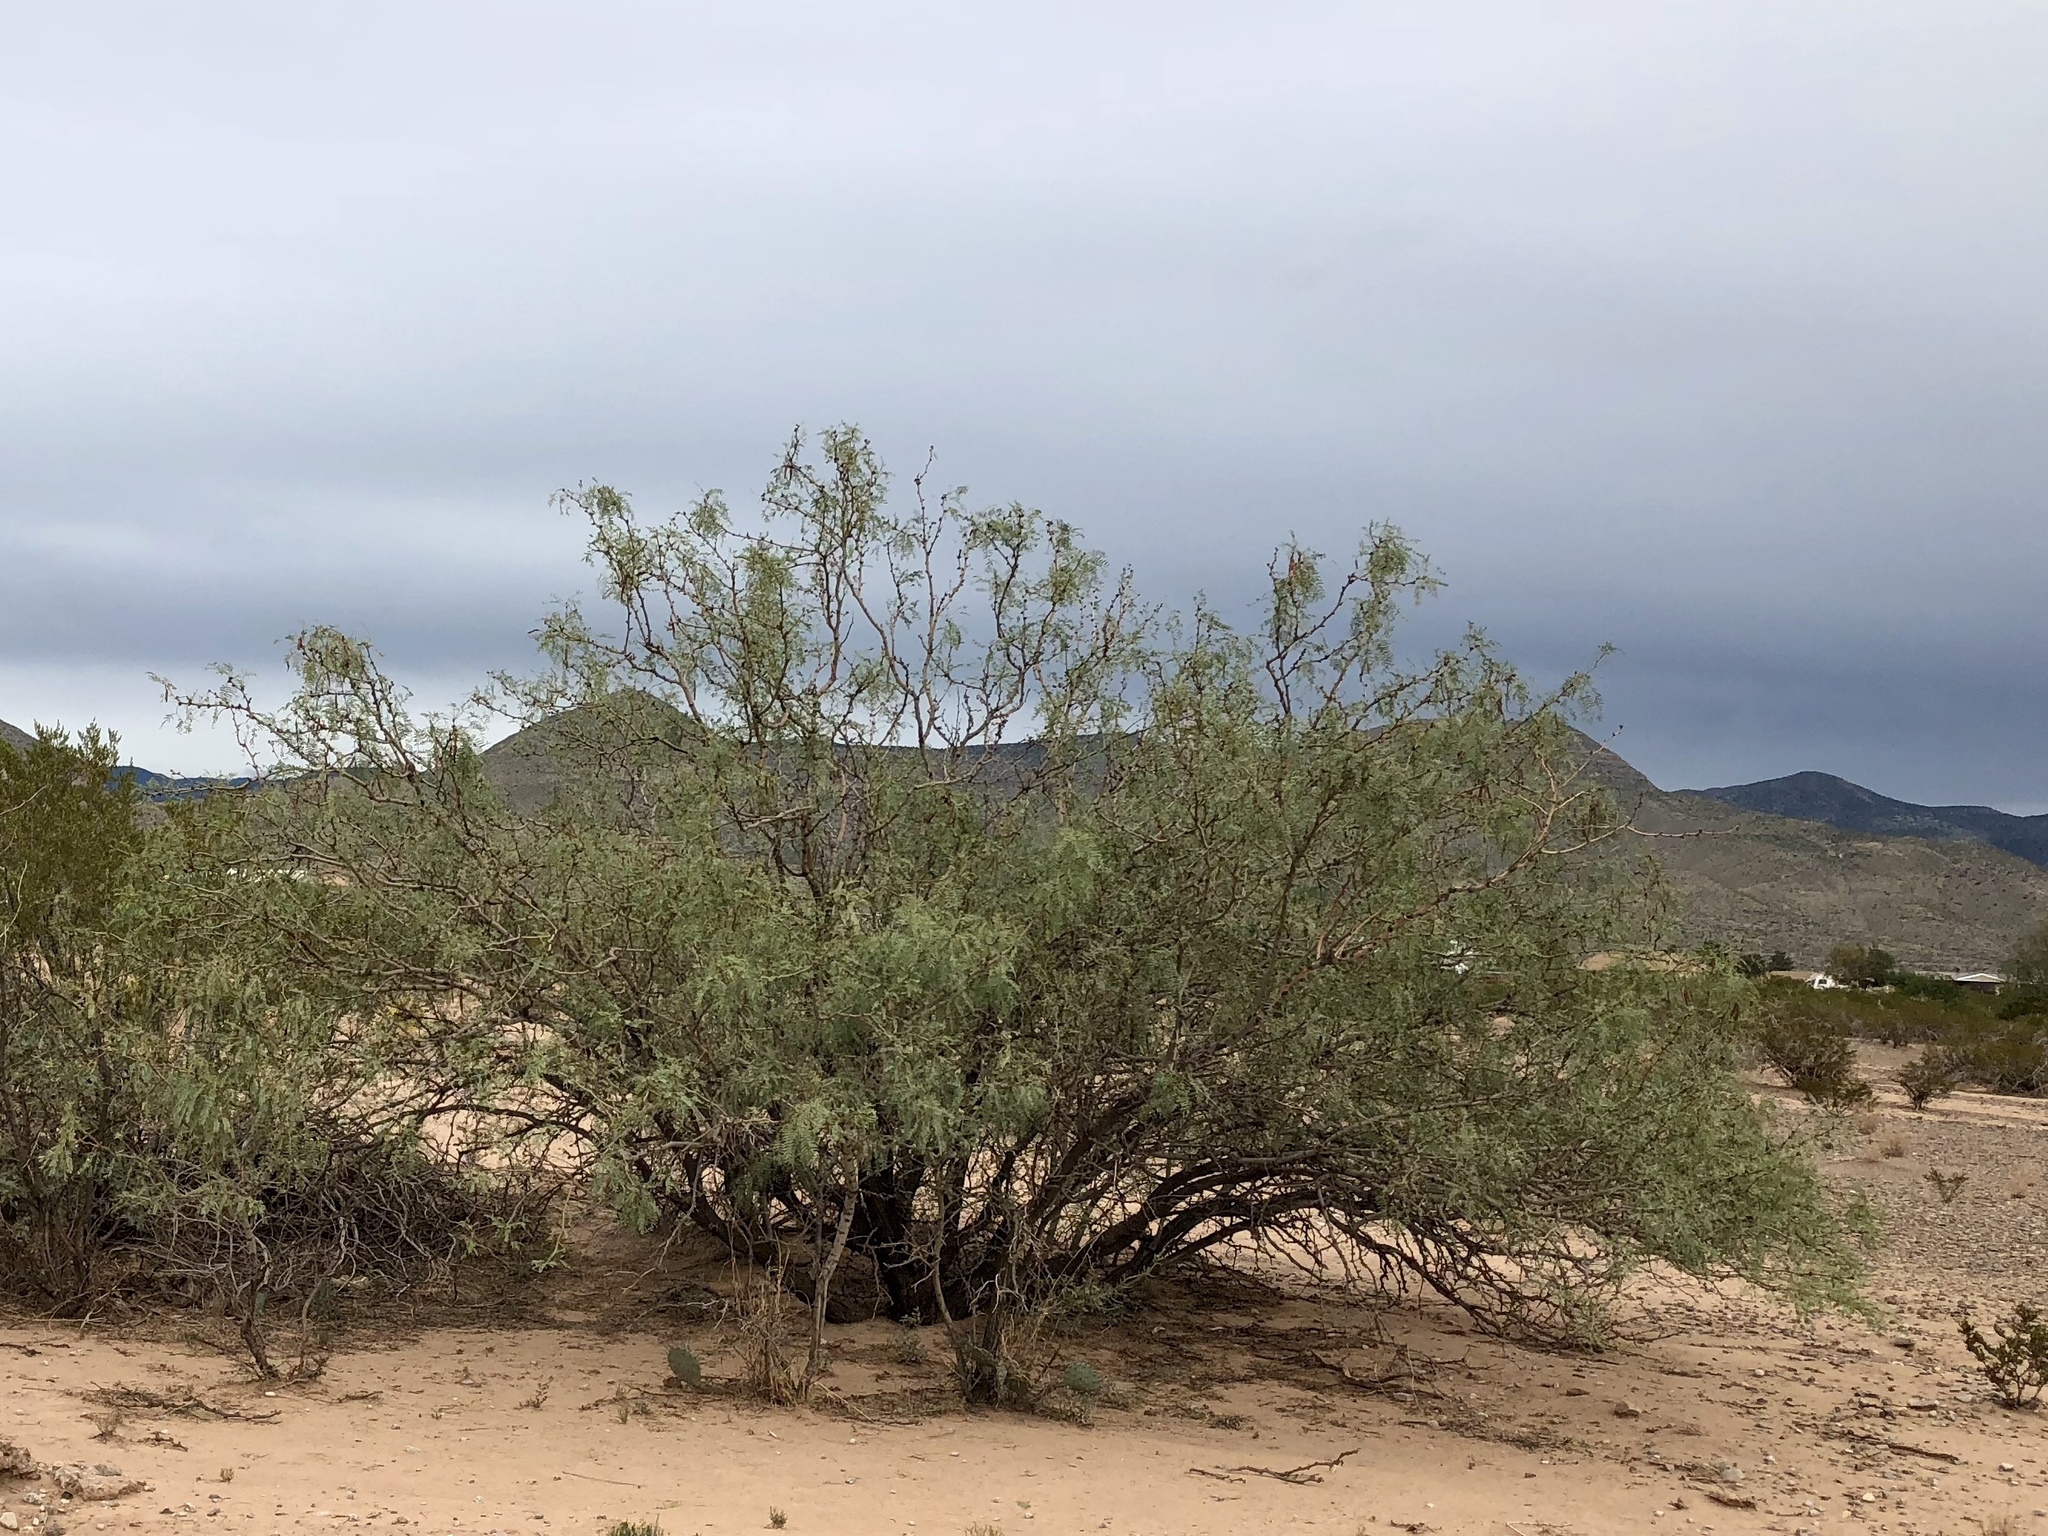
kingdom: Plantae
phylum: Tracheophyta
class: Magnoliopsida
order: Fabales
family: Fabaceae
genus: Prosopis
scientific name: Prosopis glandulosa
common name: Honey mesquite
